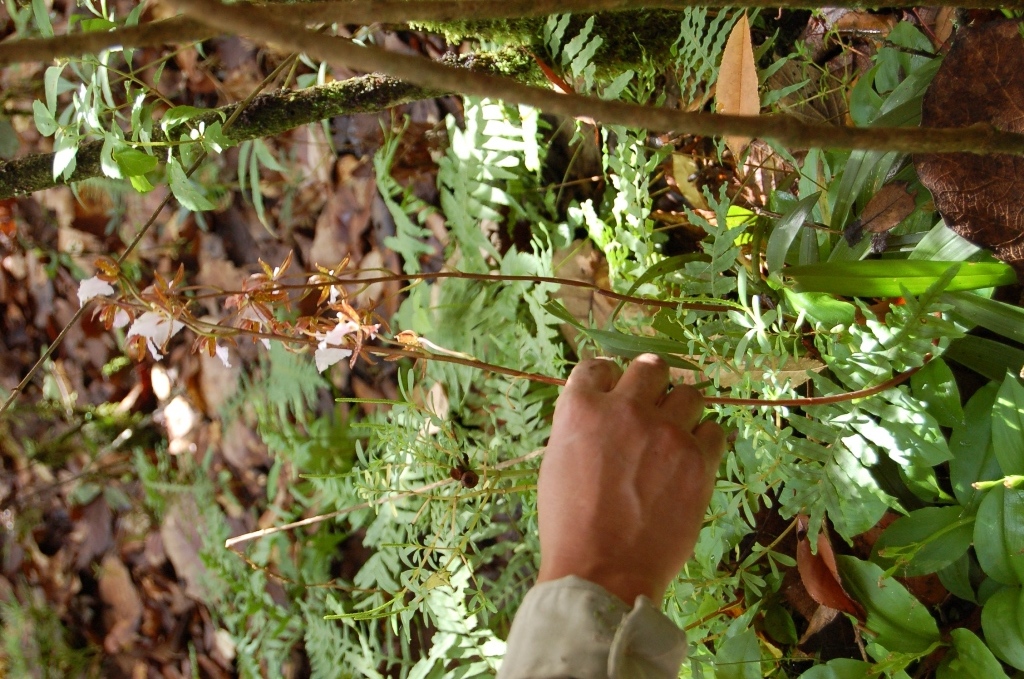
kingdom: Plantae
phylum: Tracheophyta
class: Liliopsida
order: Asparagales
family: Orchidaceae
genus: Rhynchostele
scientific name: Rhynchostele bictoniensis
